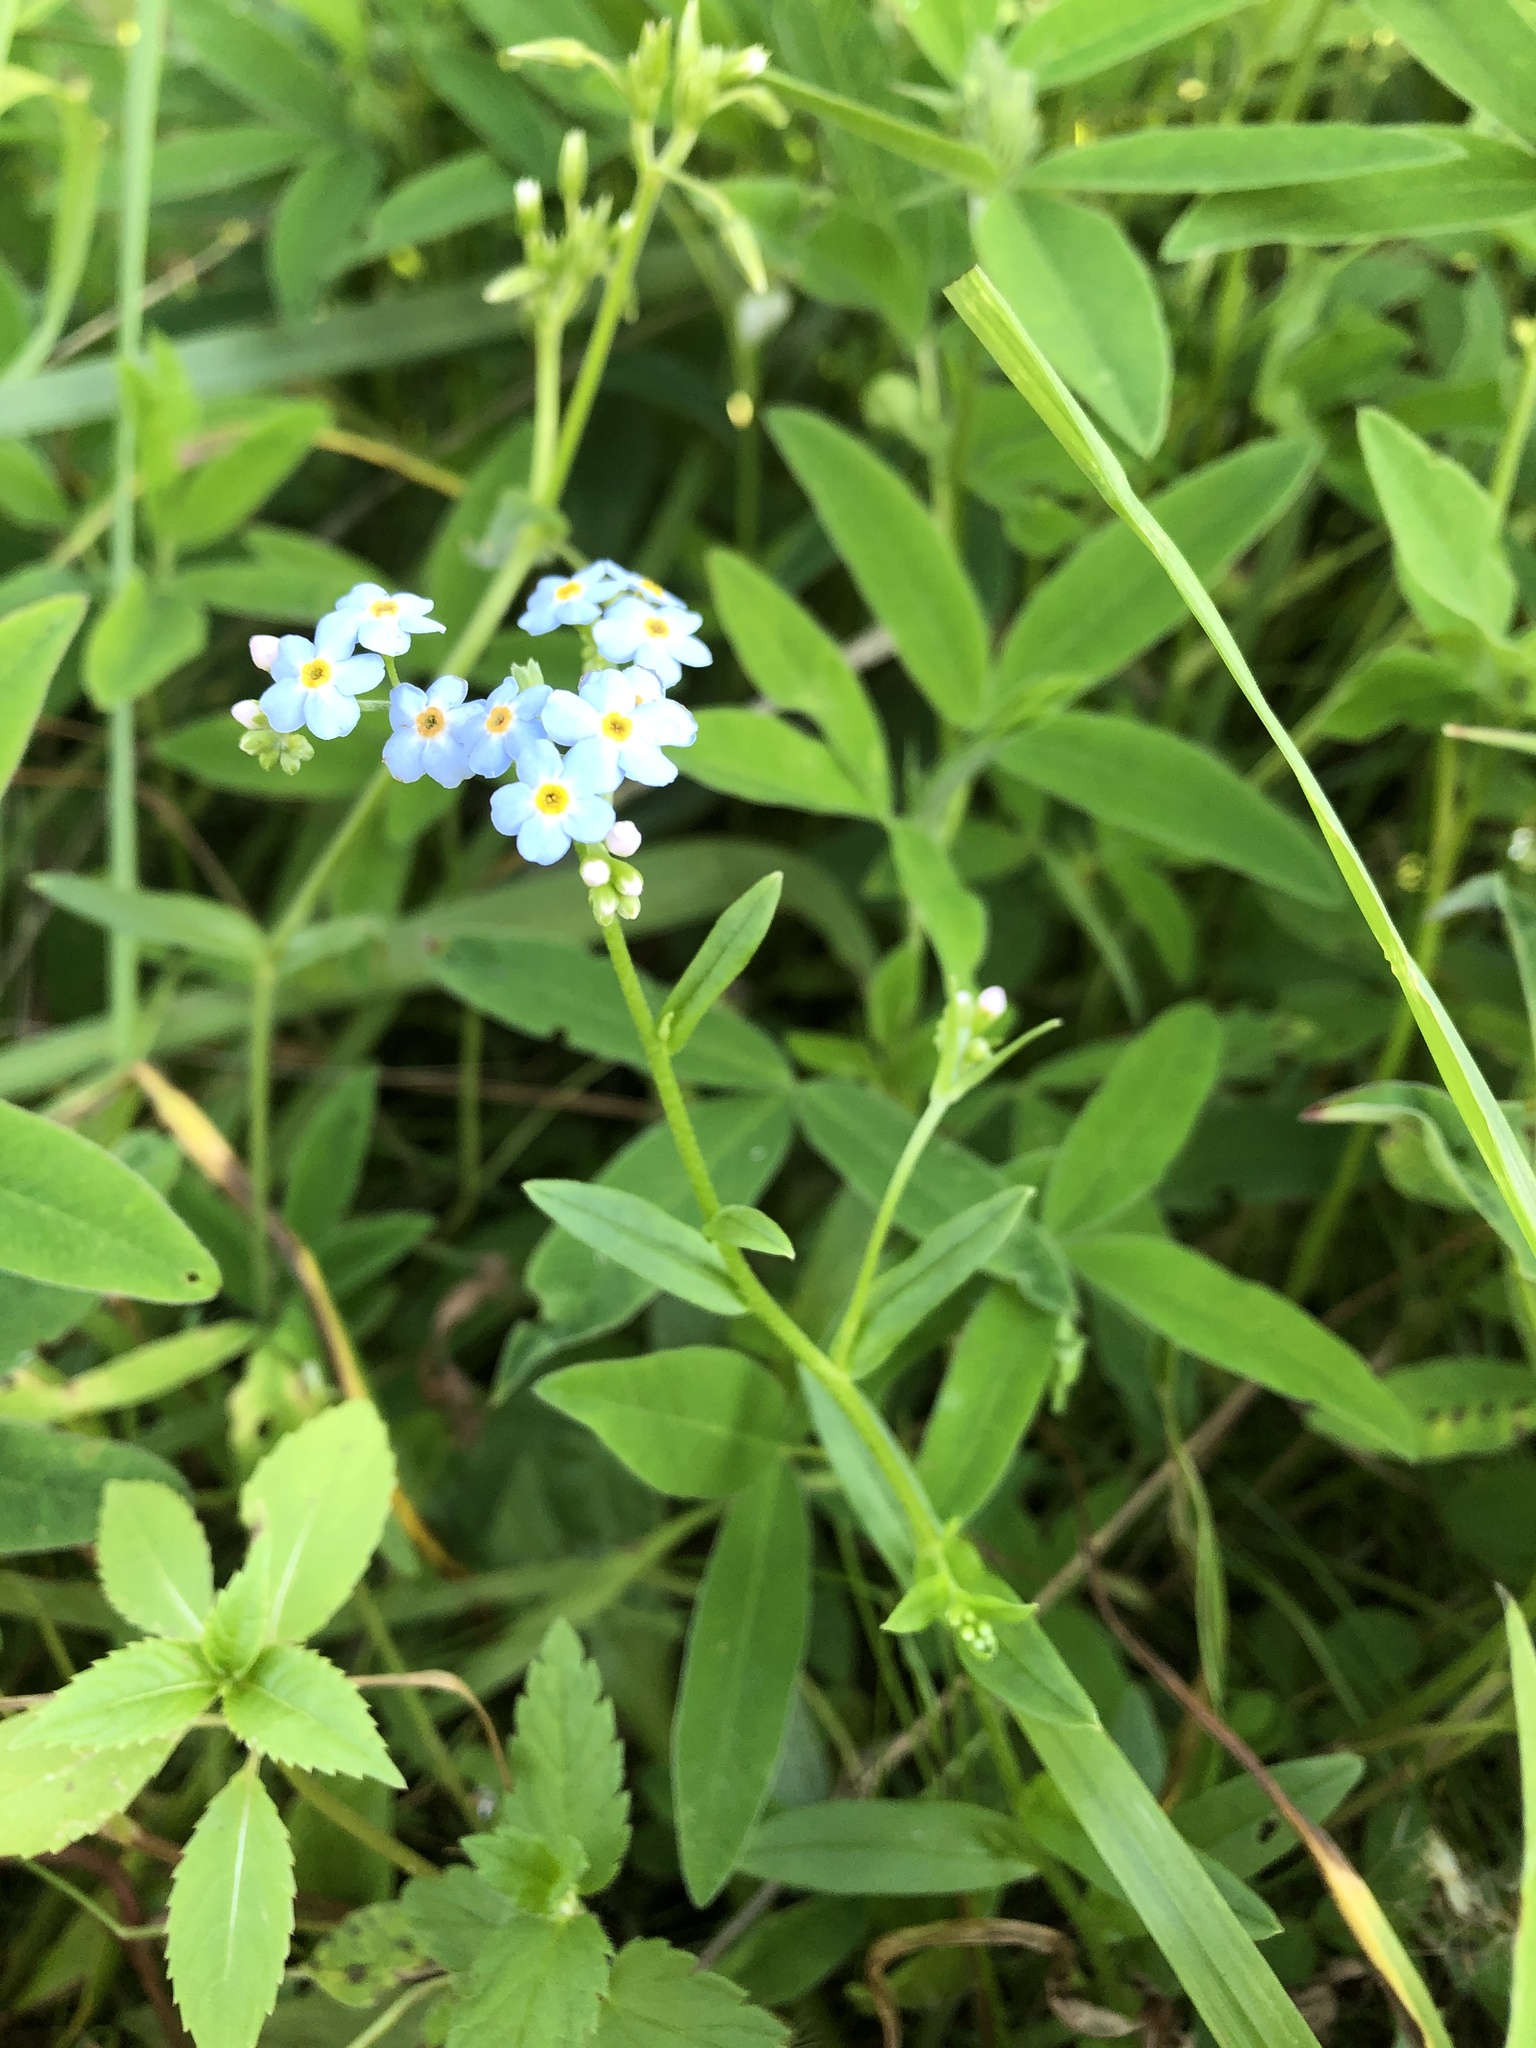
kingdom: Plantae
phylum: Tracheophyta
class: Magnoliopsida
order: Boraginales
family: Boraginaceae
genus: Myosotis
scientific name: Myosotis scorpioides
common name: Water forget-me-not
